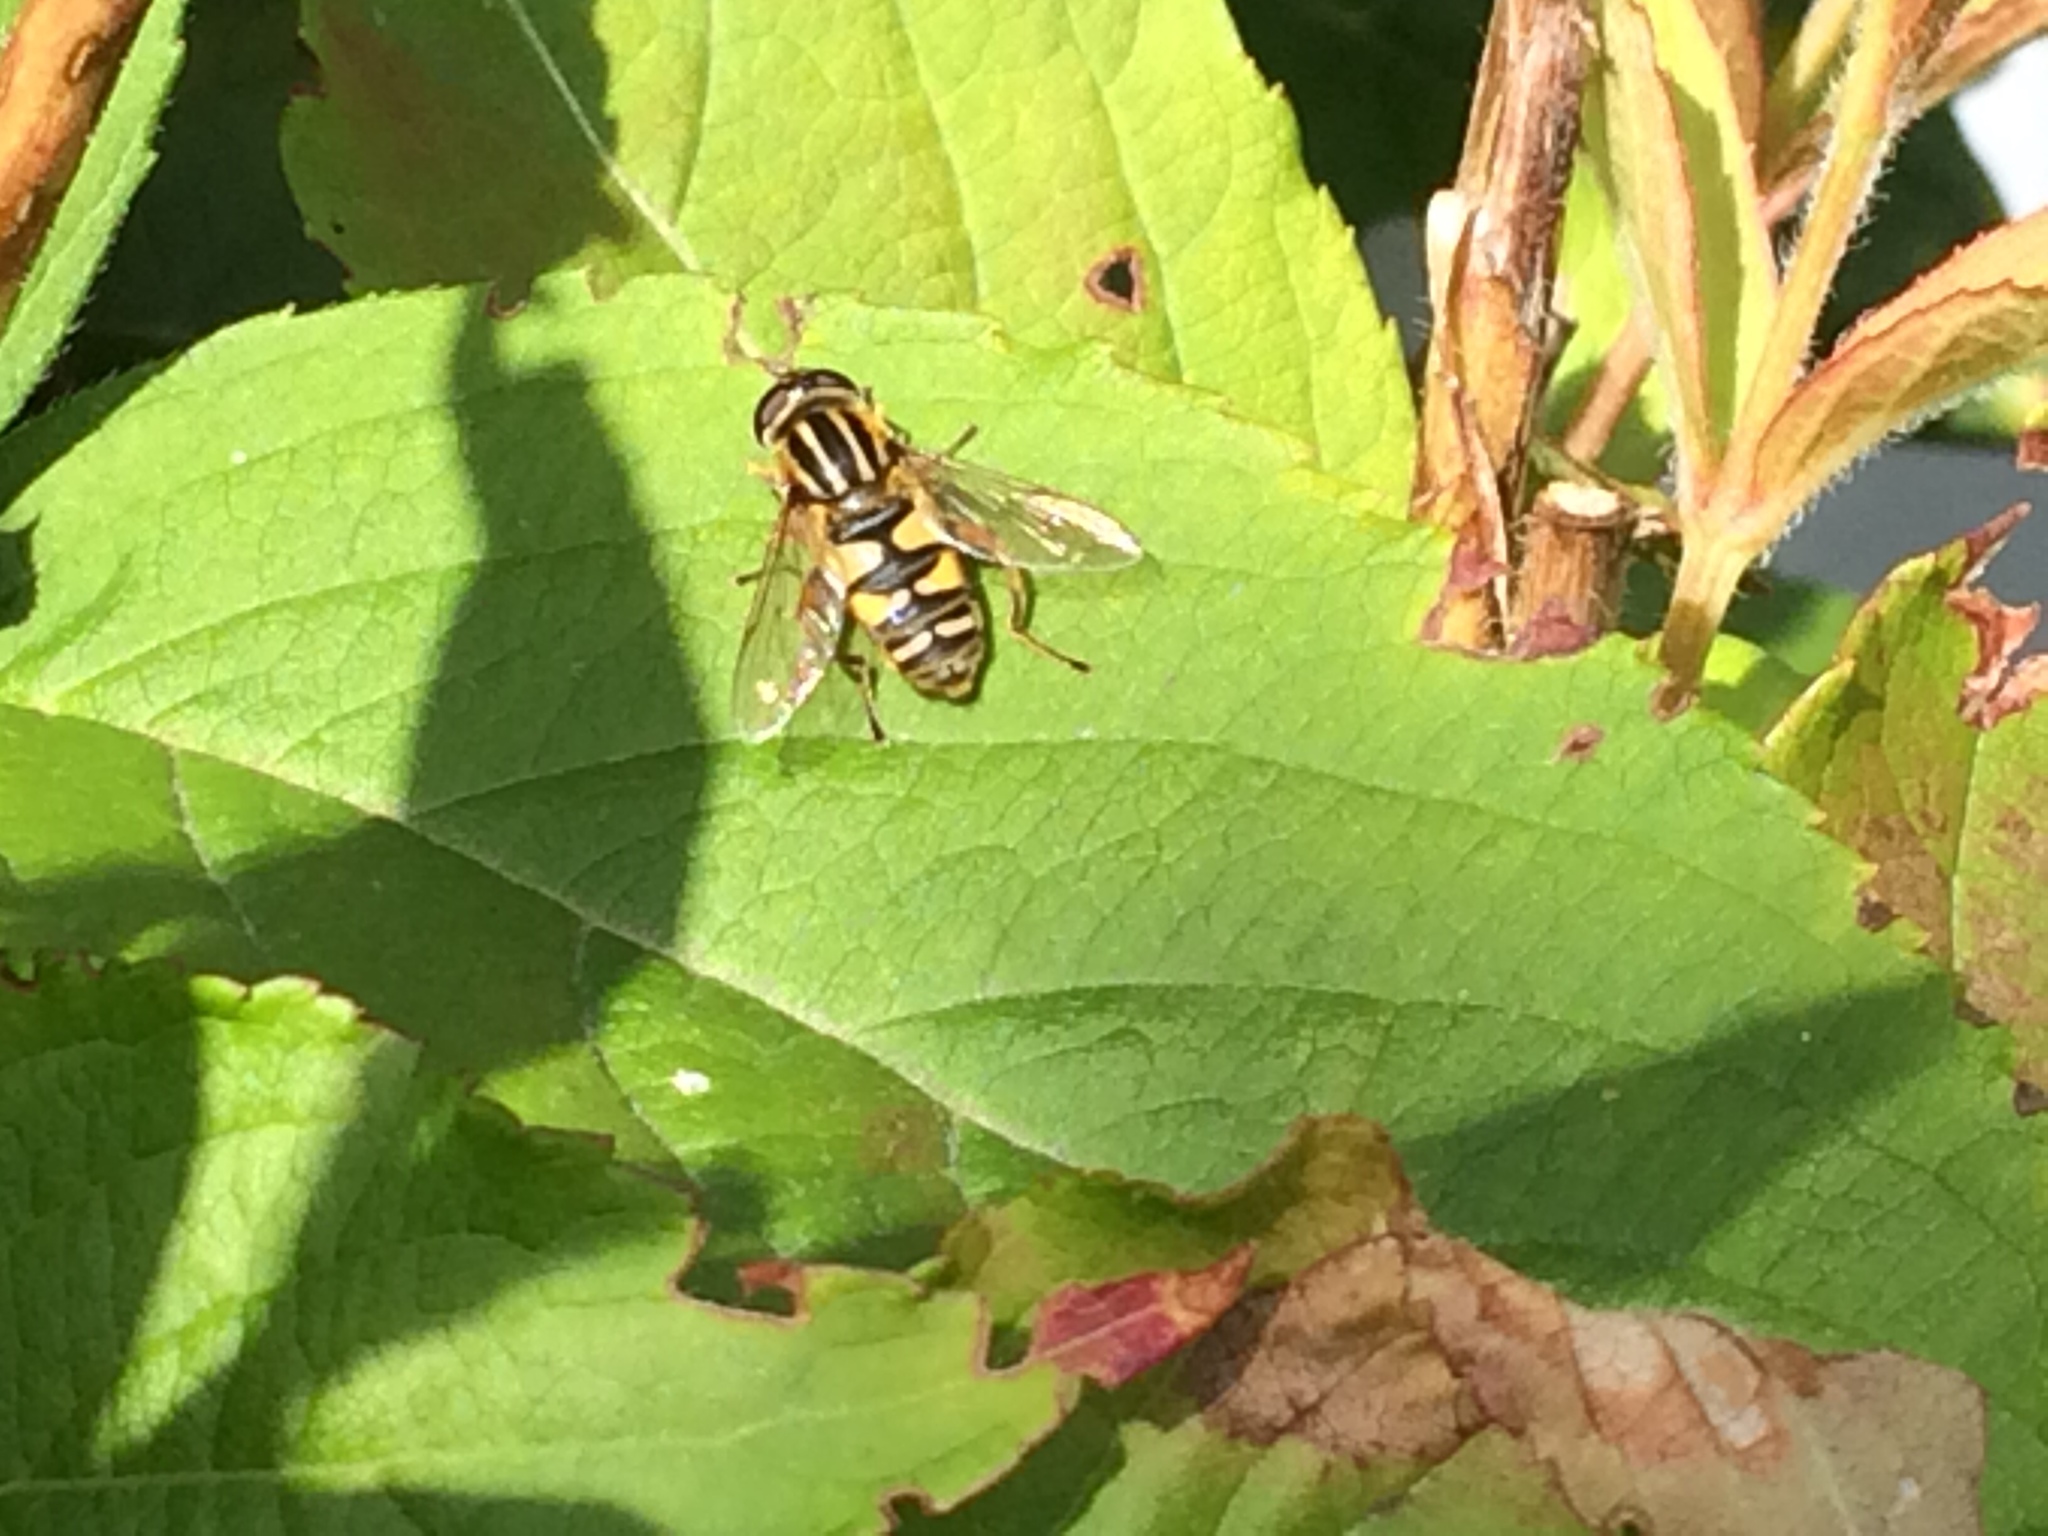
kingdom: Animalia
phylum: Arthropoda
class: Insecta
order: Diptera
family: Syrphidae
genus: Helophilus
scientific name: Helophilus pendulus
